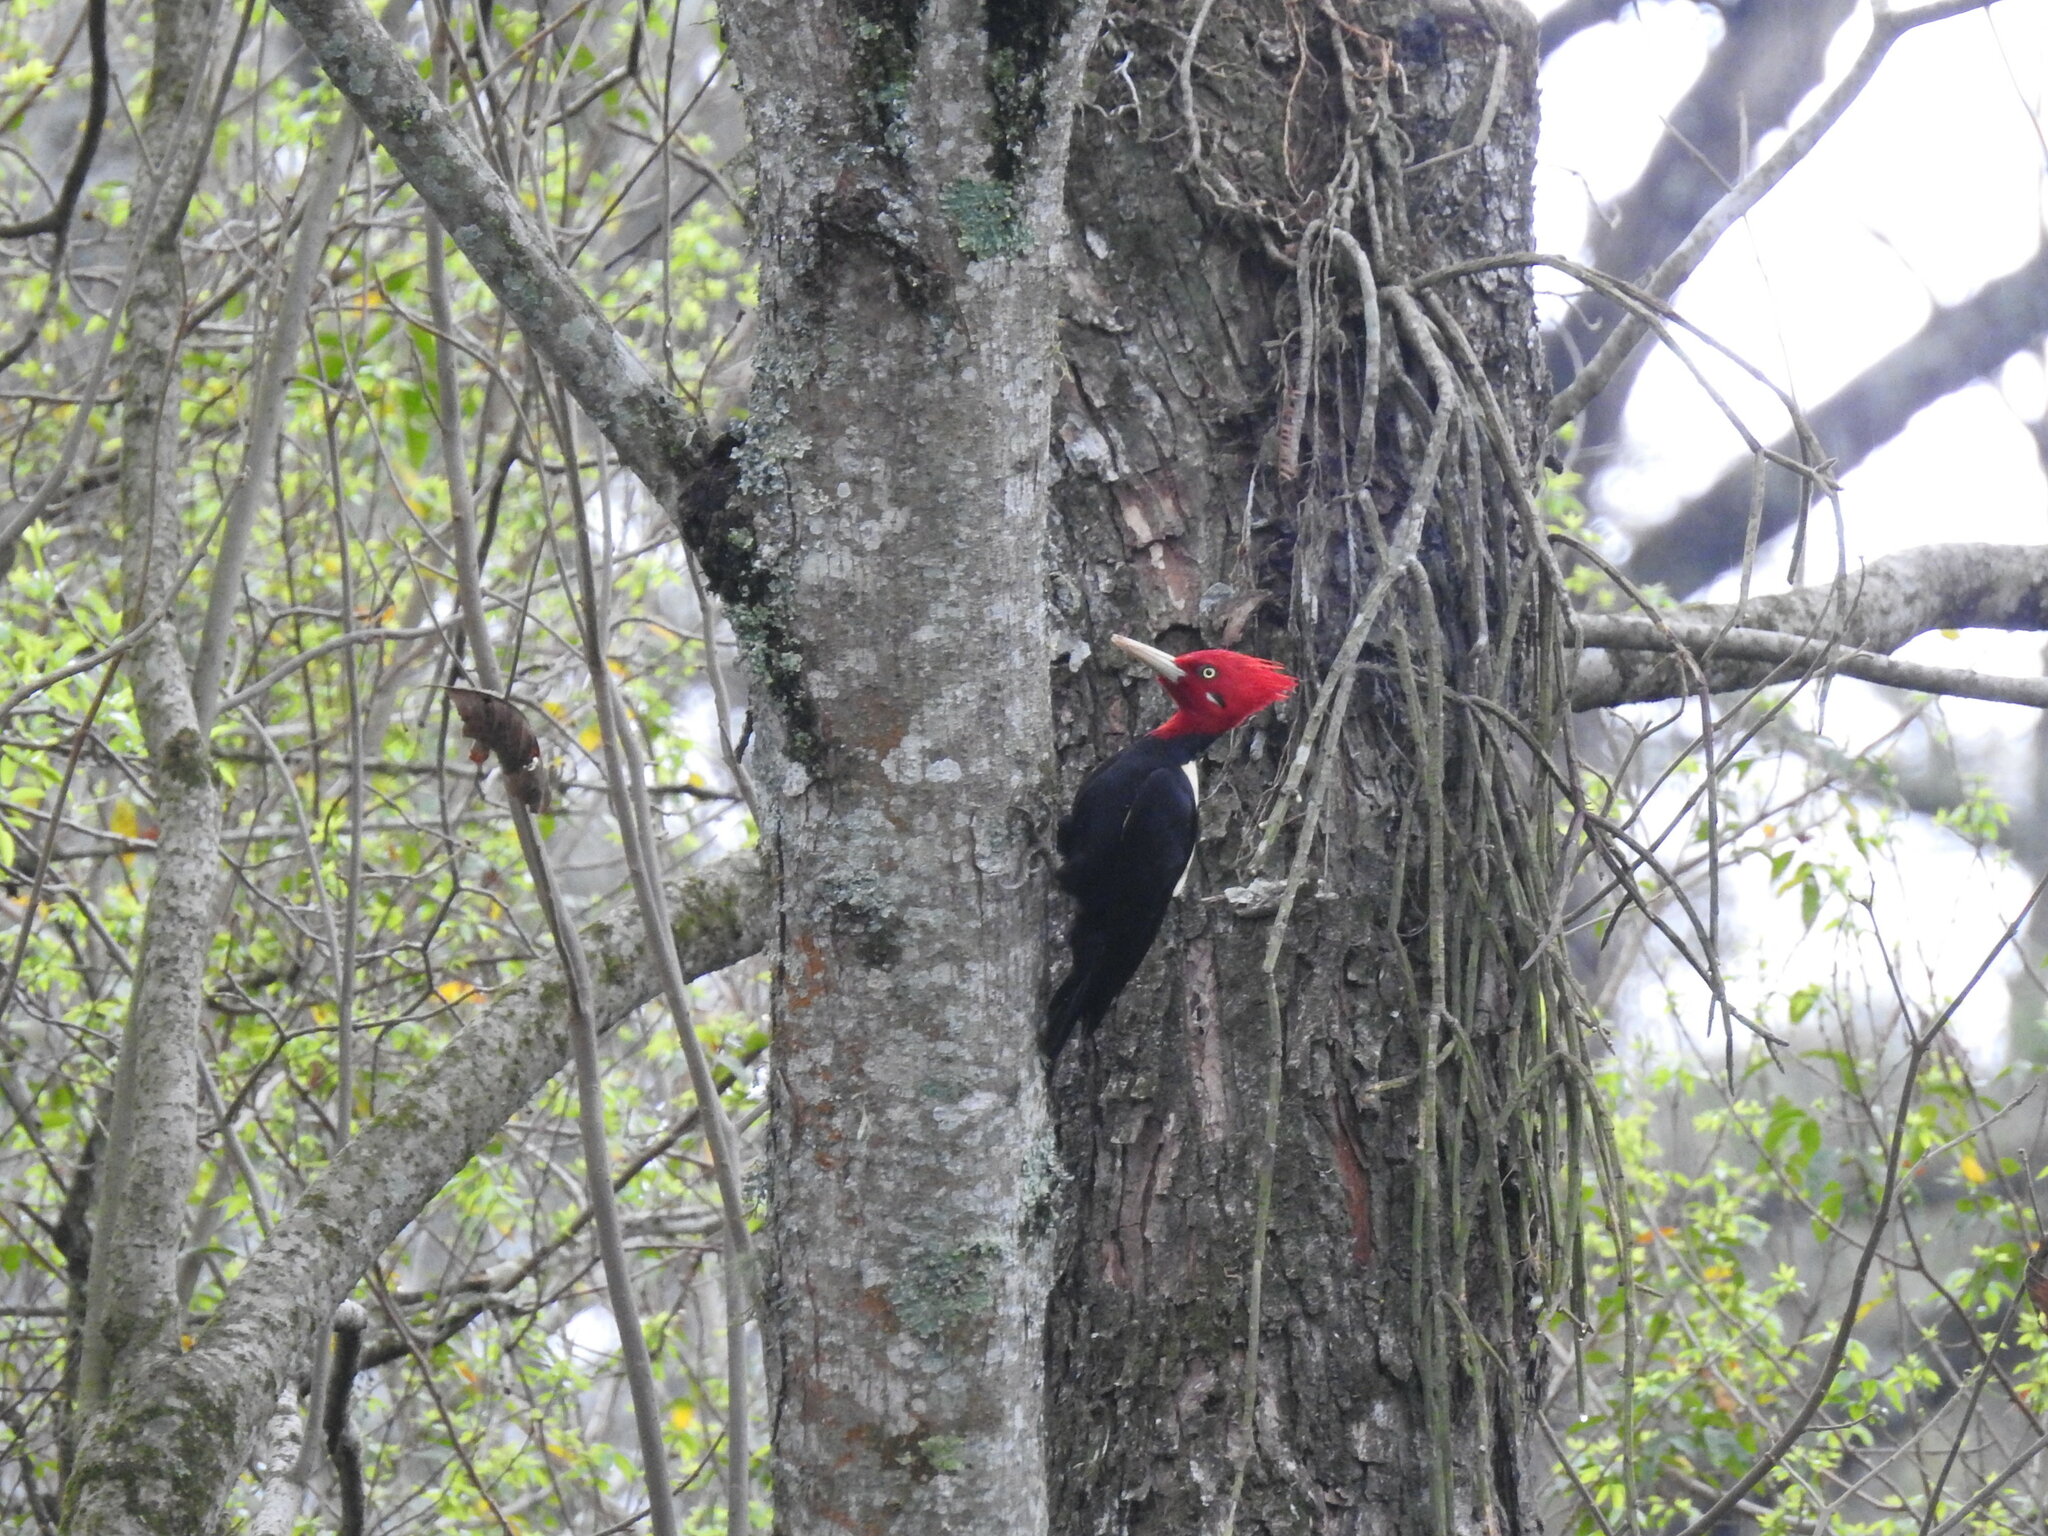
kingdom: Animalia
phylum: Chordata
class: Aves
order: Piciformes
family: Picidae
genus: Campephilus
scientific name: Campephilus leucopogon
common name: Cream-backed woodpecker
